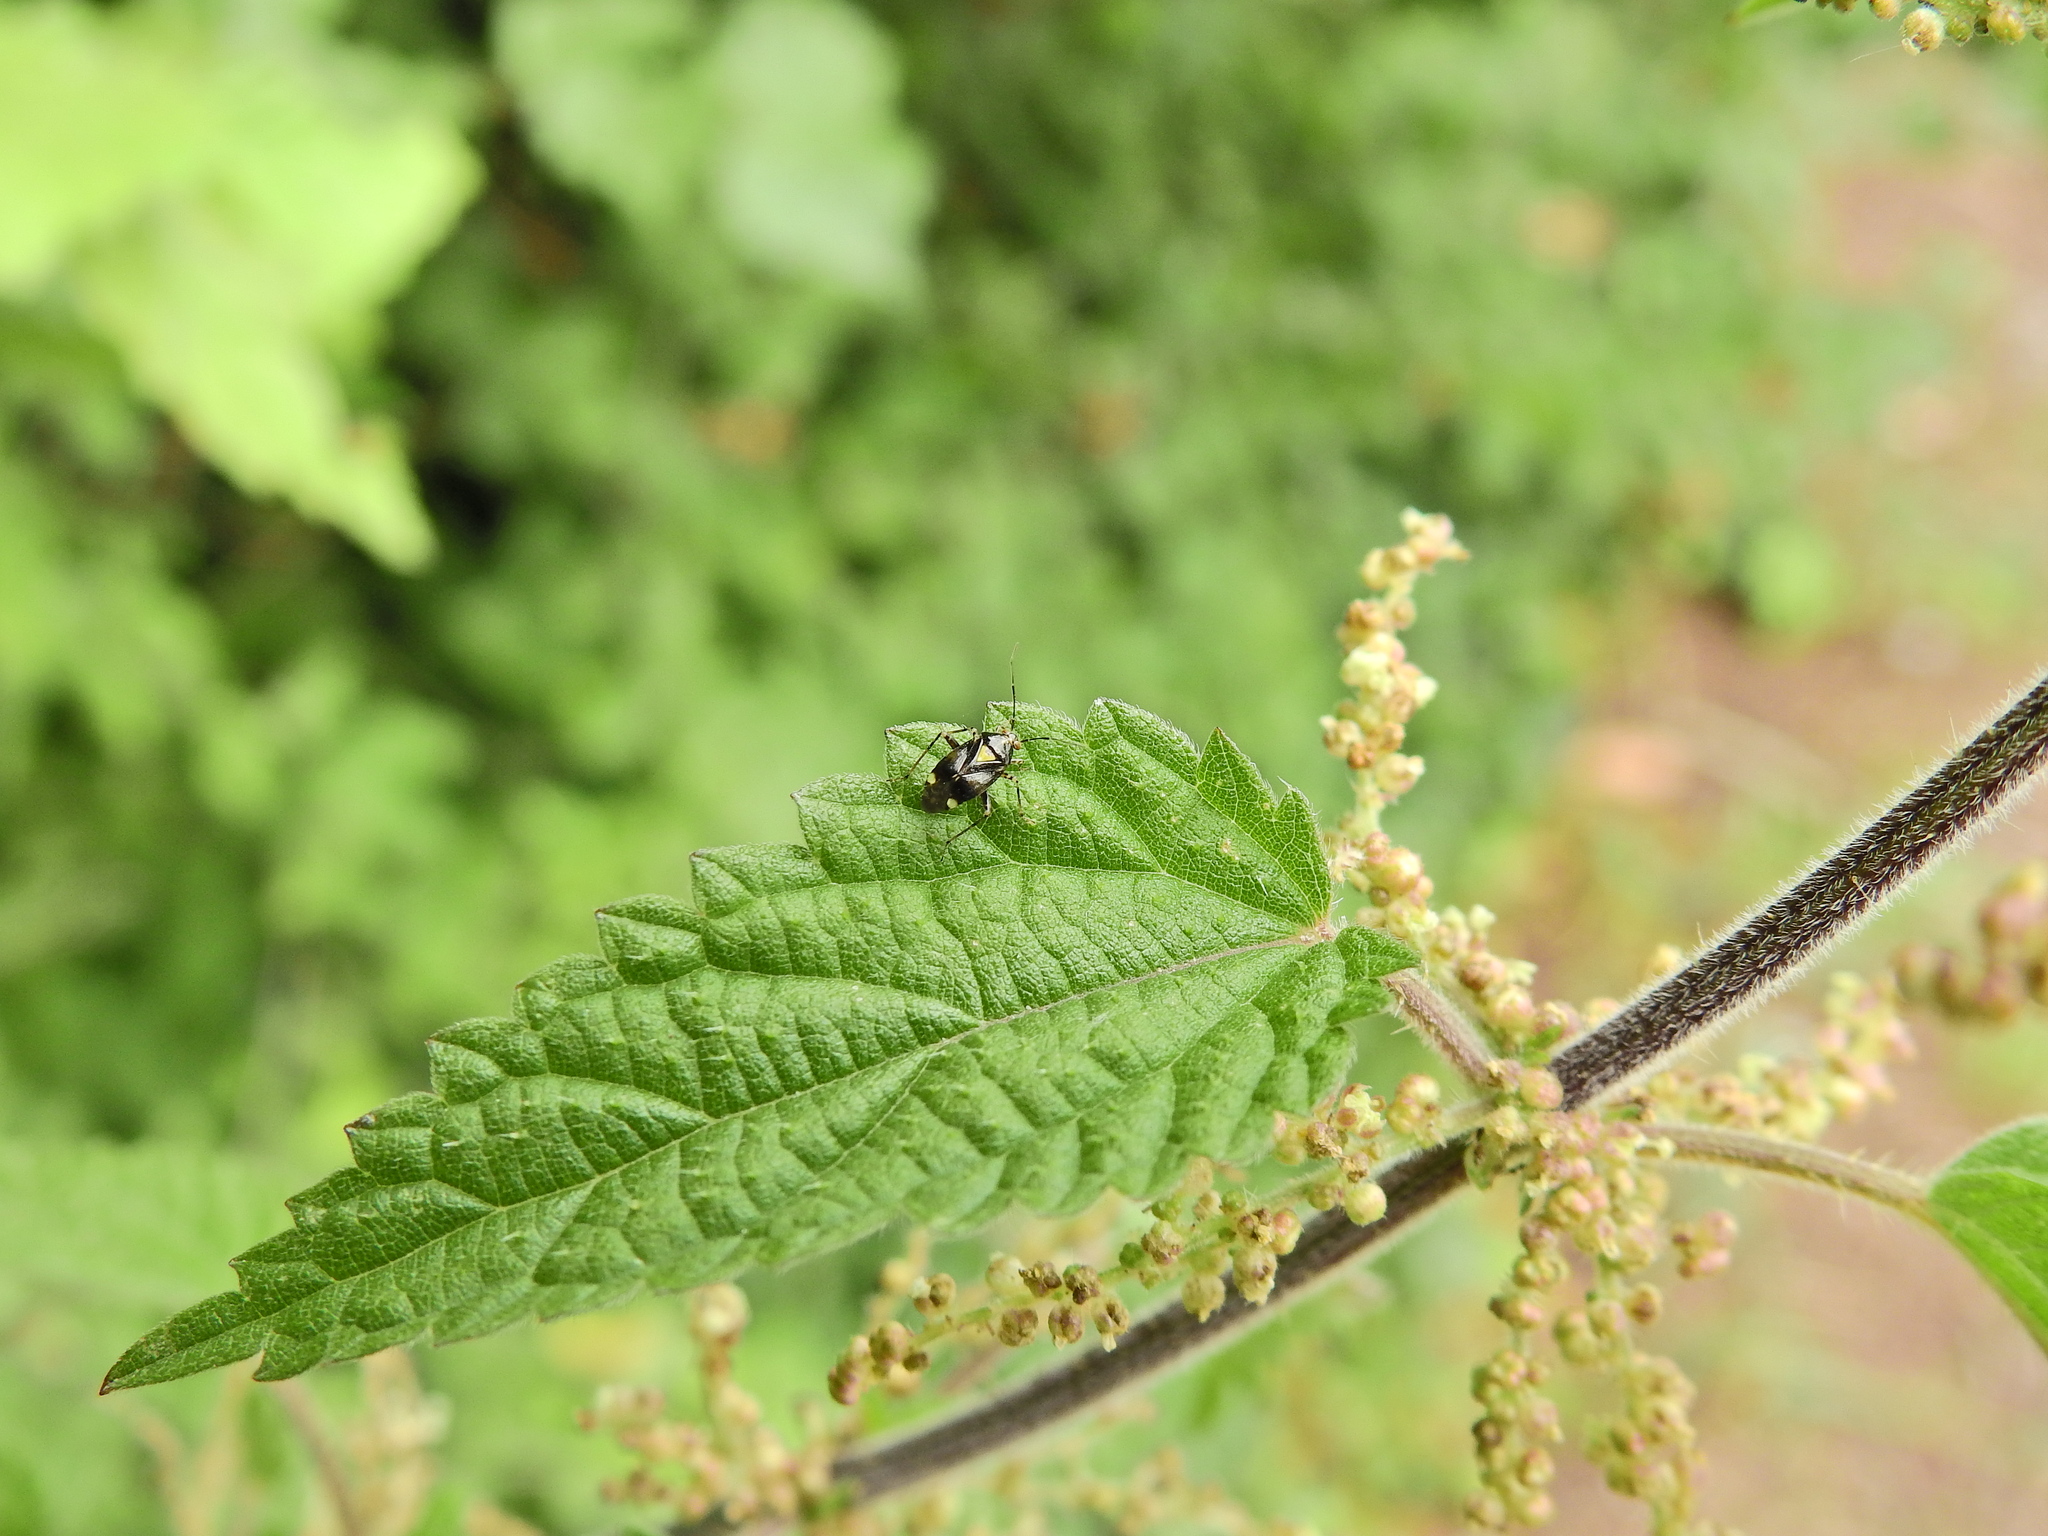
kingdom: Animalia
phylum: Arthropoda
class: Insecta
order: Hemiptera
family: Miridae
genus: Liocoris
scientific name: Liocoris tripustulatus
